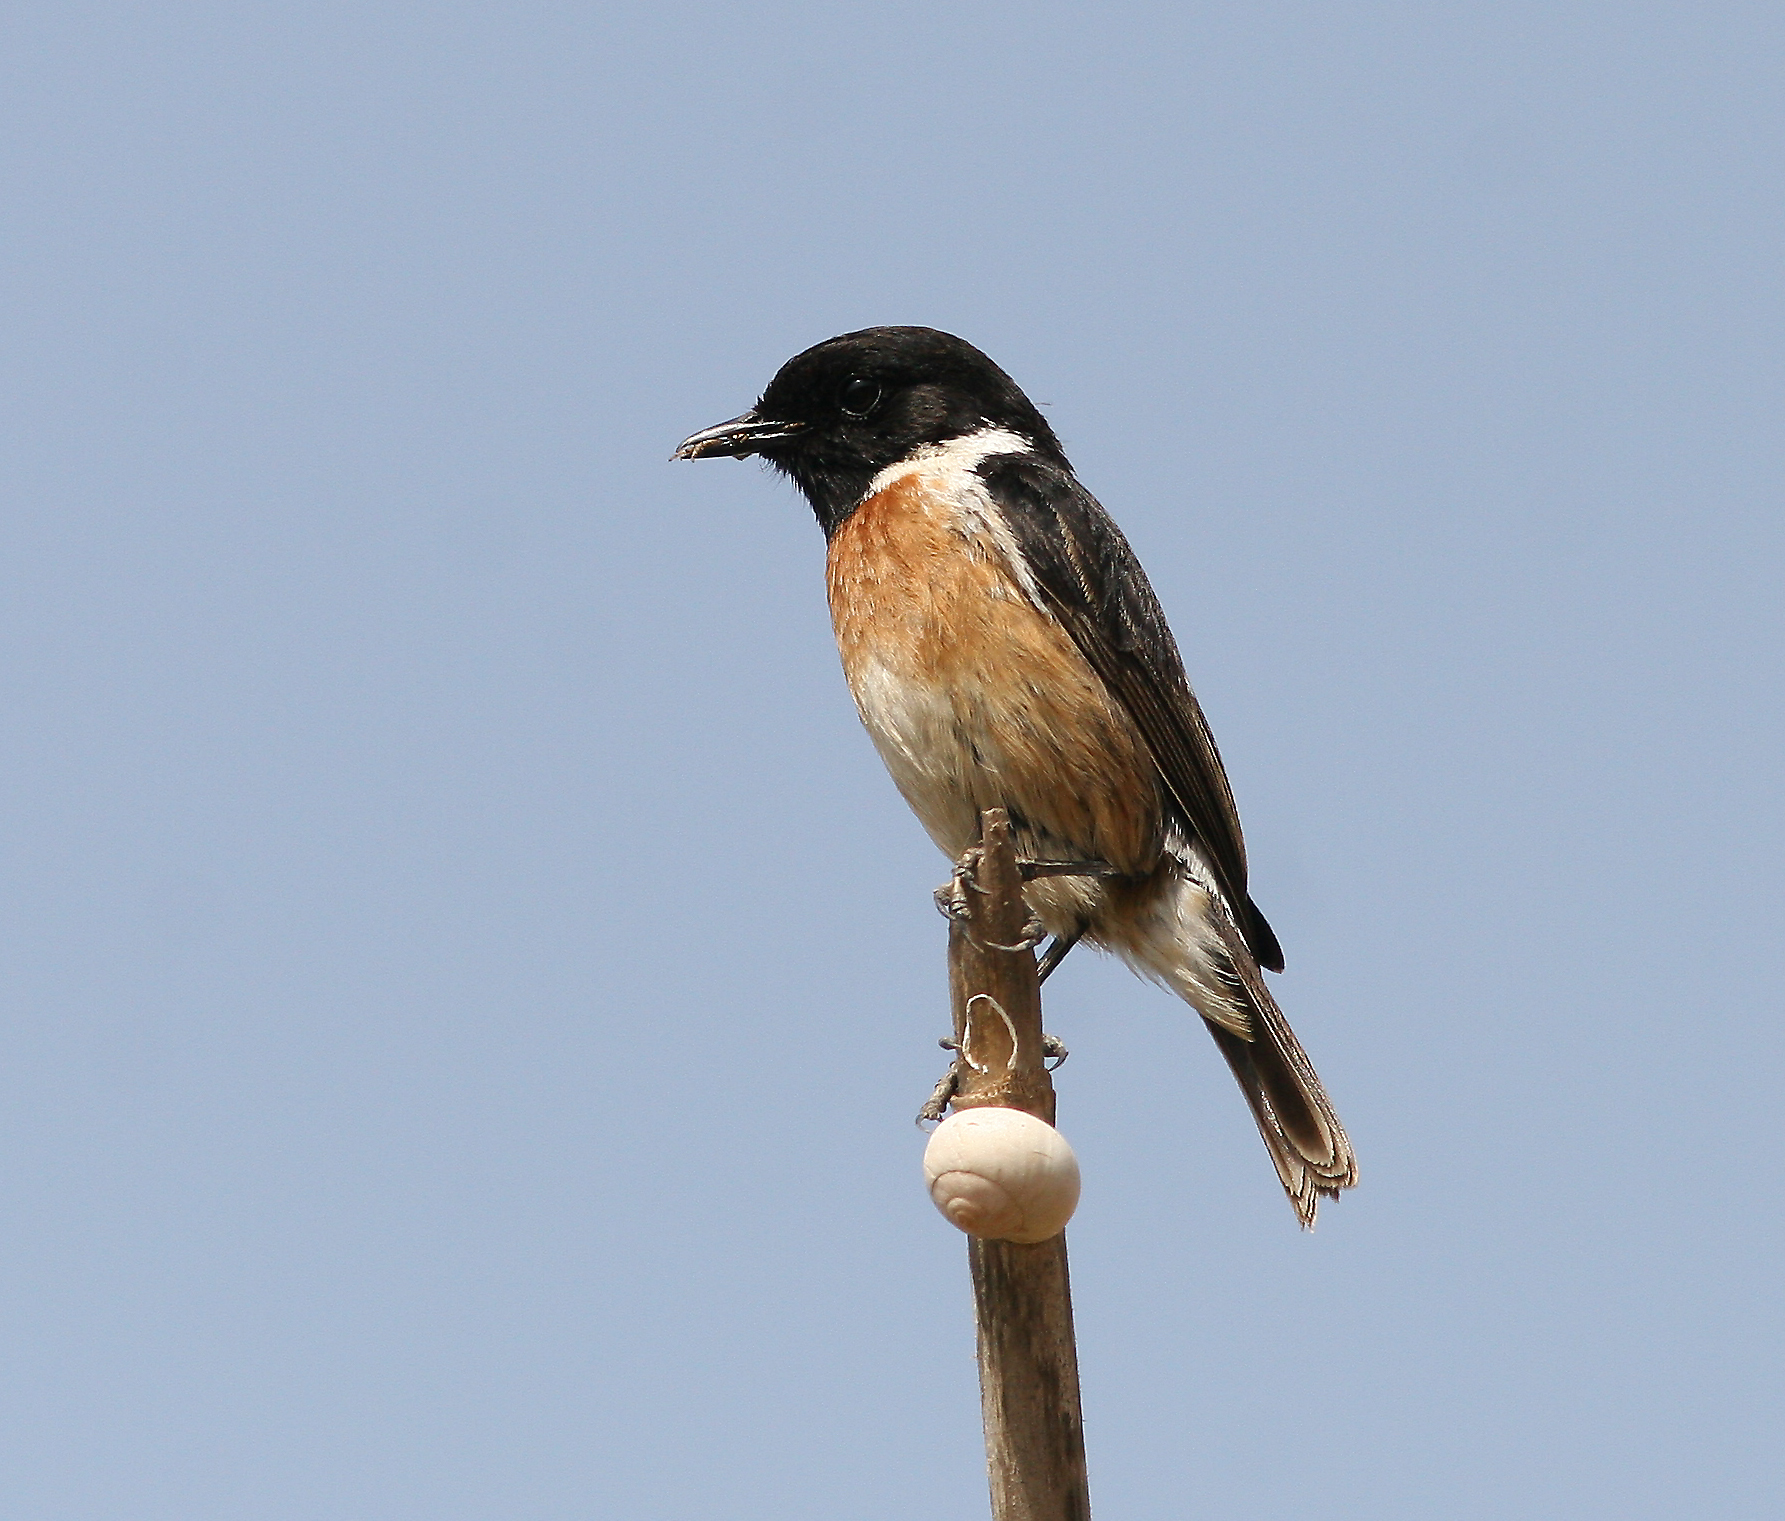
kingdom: Animalia
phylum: Chordata
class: Aves
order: Passeriformes
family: Muscicapidae
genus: Saxicola
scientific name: Saxicola rubicola
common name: European stonechat
